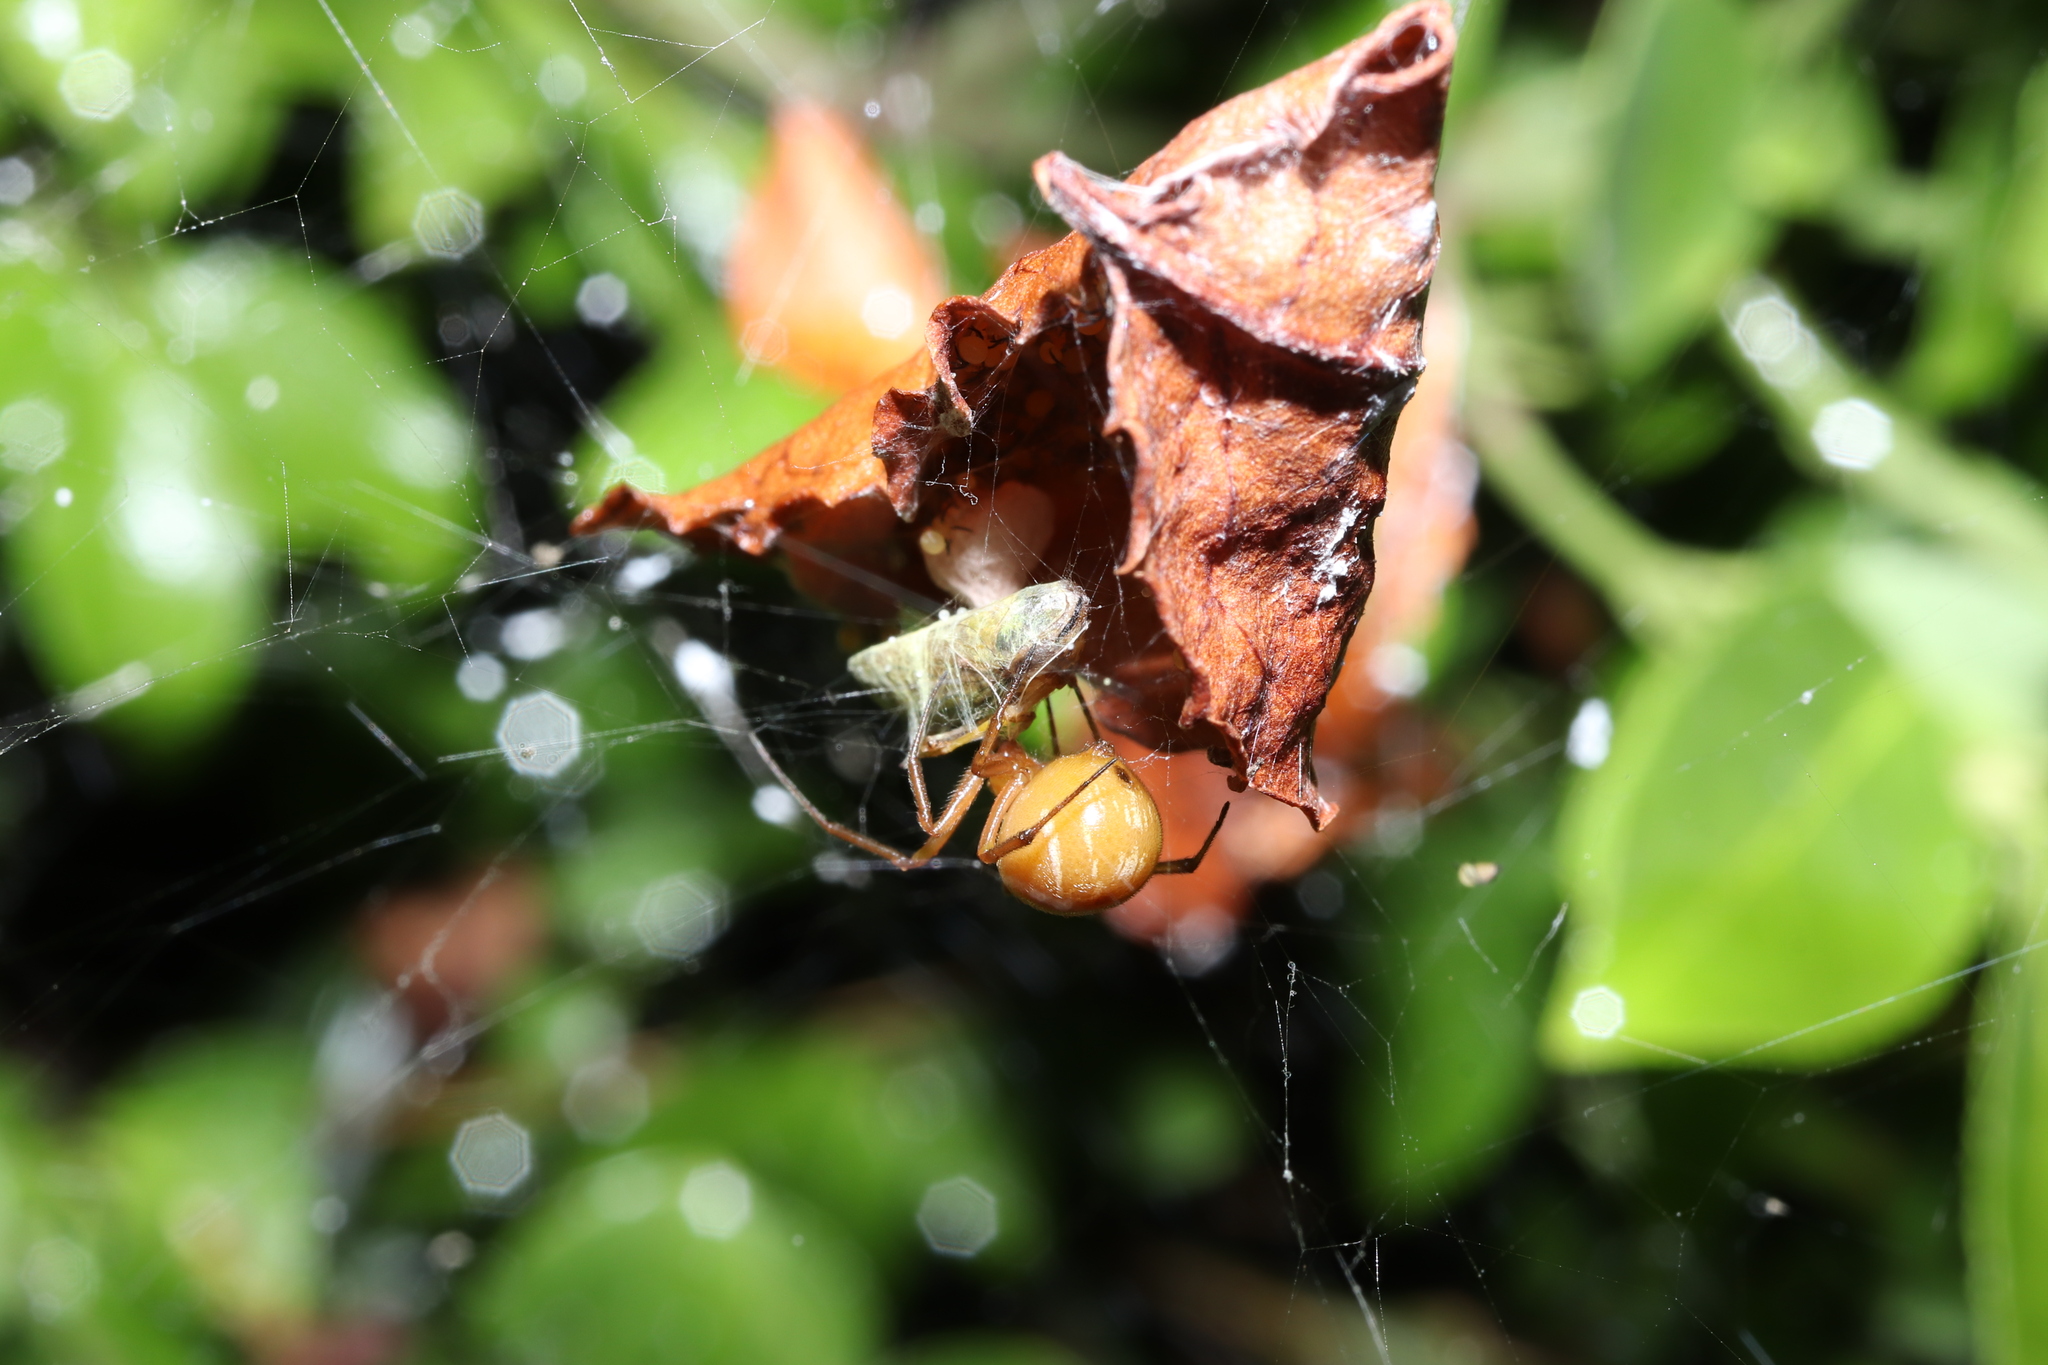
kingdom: Animalia
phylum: Arthropoda
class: Arachnida
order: Araneae
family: Theridiidae
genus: Nihonhimea
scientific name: Nihonhimea japonica
